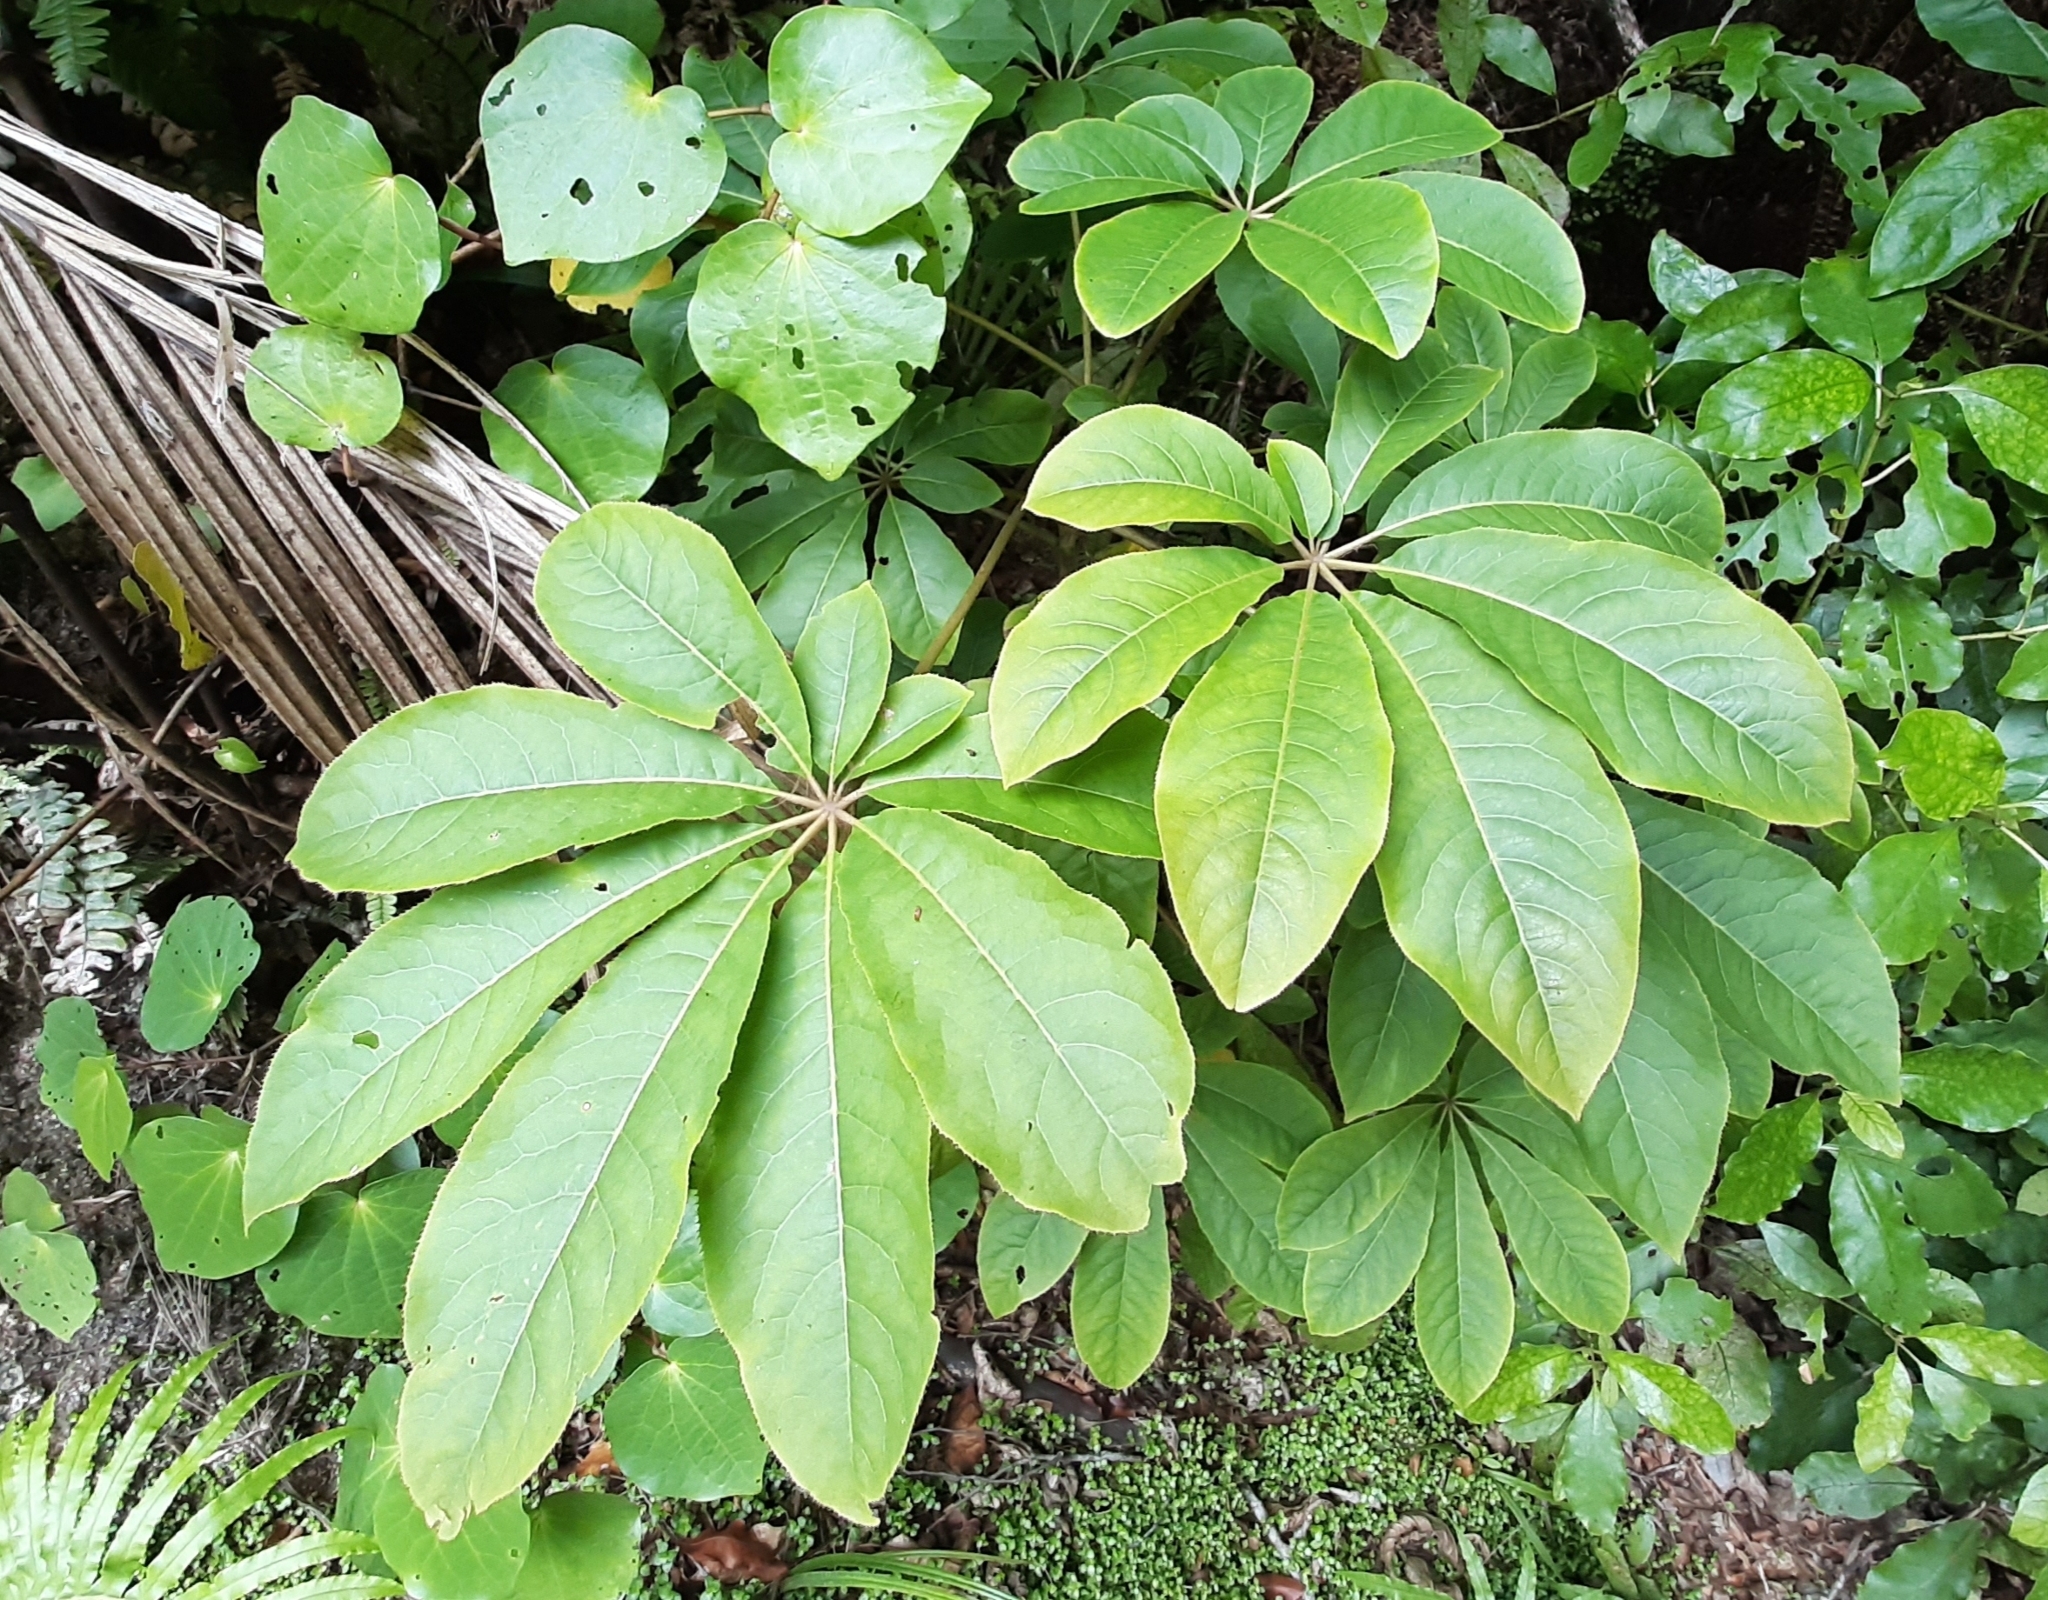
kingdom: Plantae
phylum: Tracheophyta
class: Magnoliopsida
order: Apiales
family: Araliaceae
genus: Schefflera
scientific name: Schefflera digitata
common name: Pate
